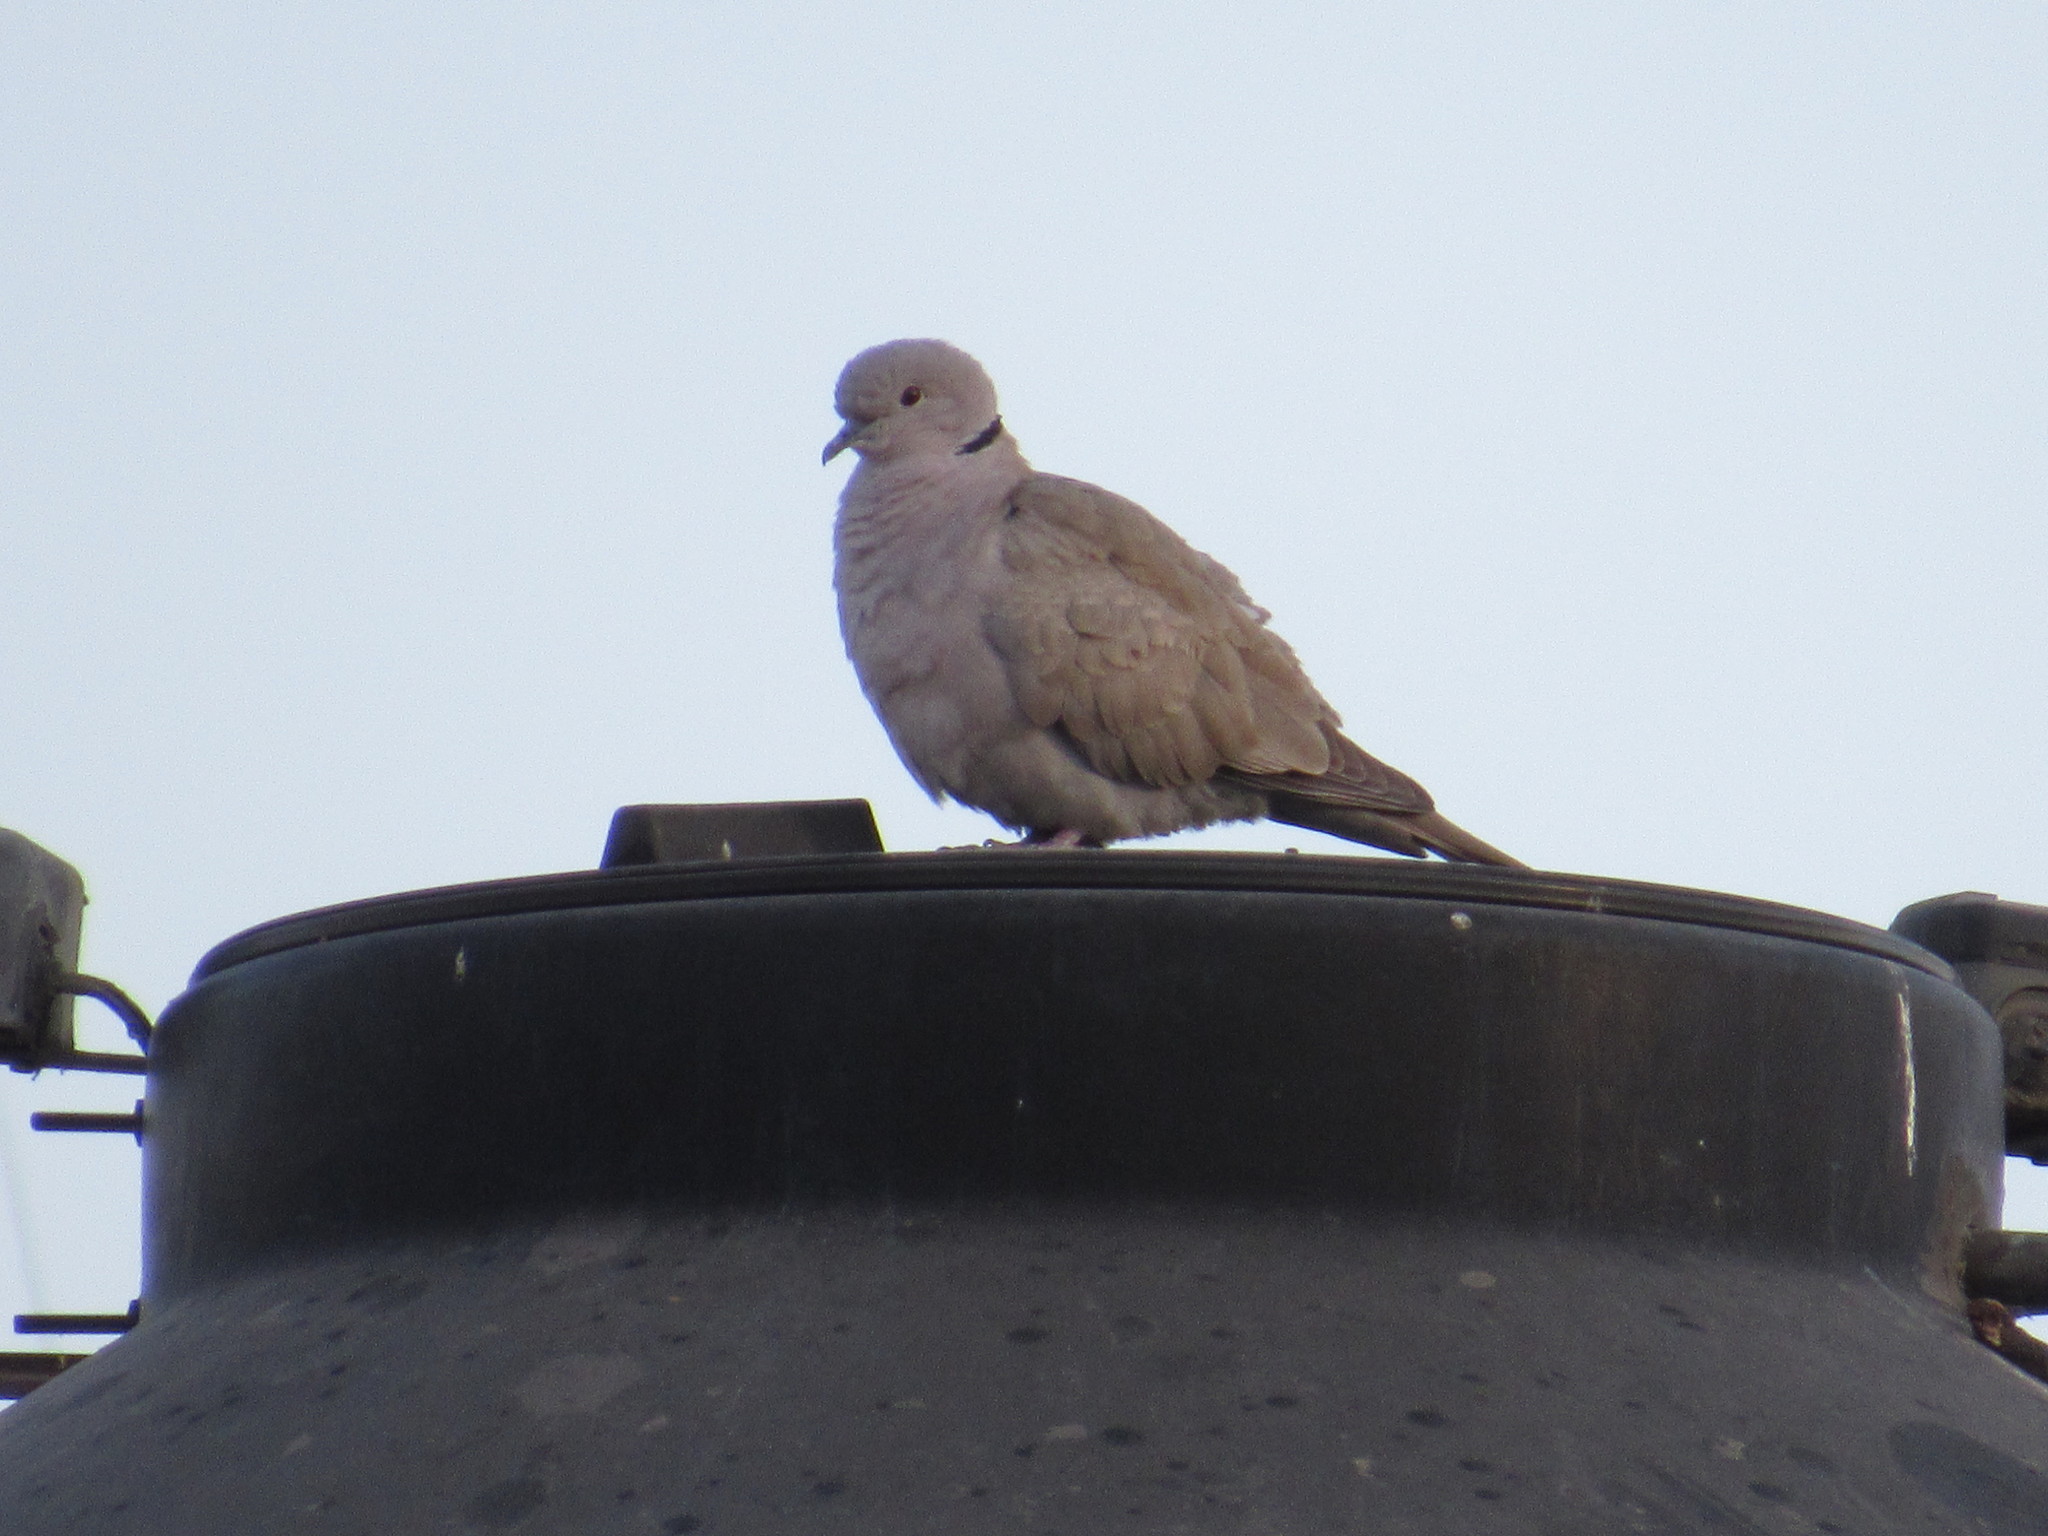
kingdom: Animalia
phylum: Chordata
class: Aves
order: Columbiformes
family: Columbidae
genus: Streptopelia
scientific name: Streptopelia decaocto
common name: Eurasian collared dove
